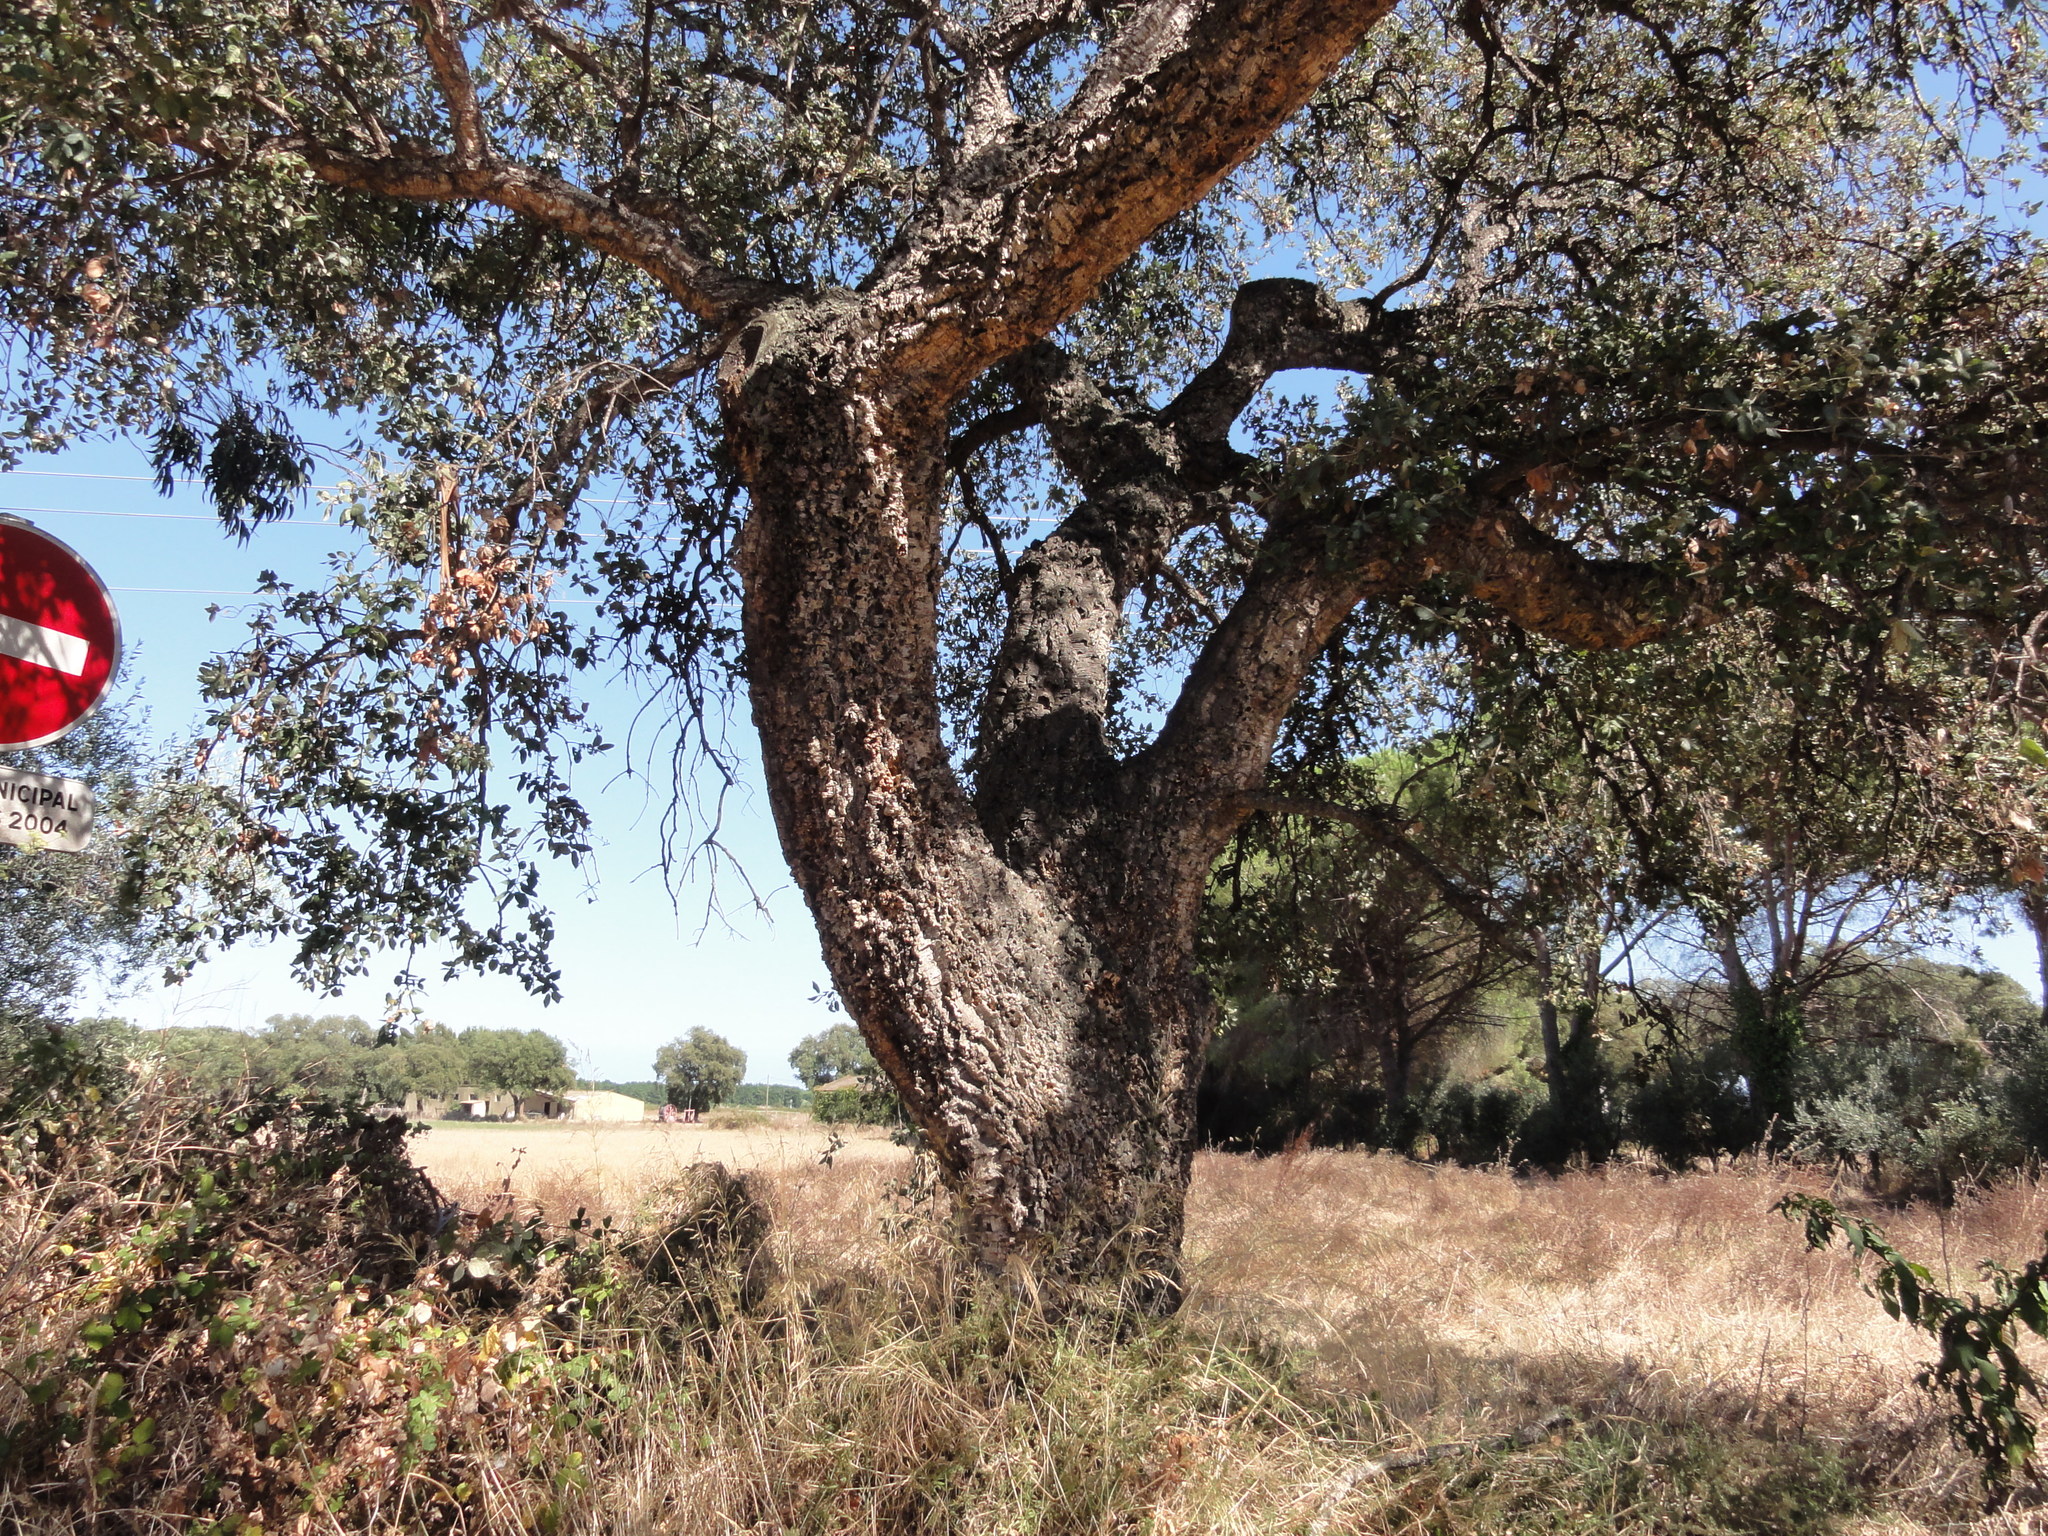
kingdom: Plantae
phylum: Tracheophyta
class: Magnoliopsida
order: Fagales
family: Fagaceae
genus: Quercus
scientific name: Quercus suber
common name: Cork oak
